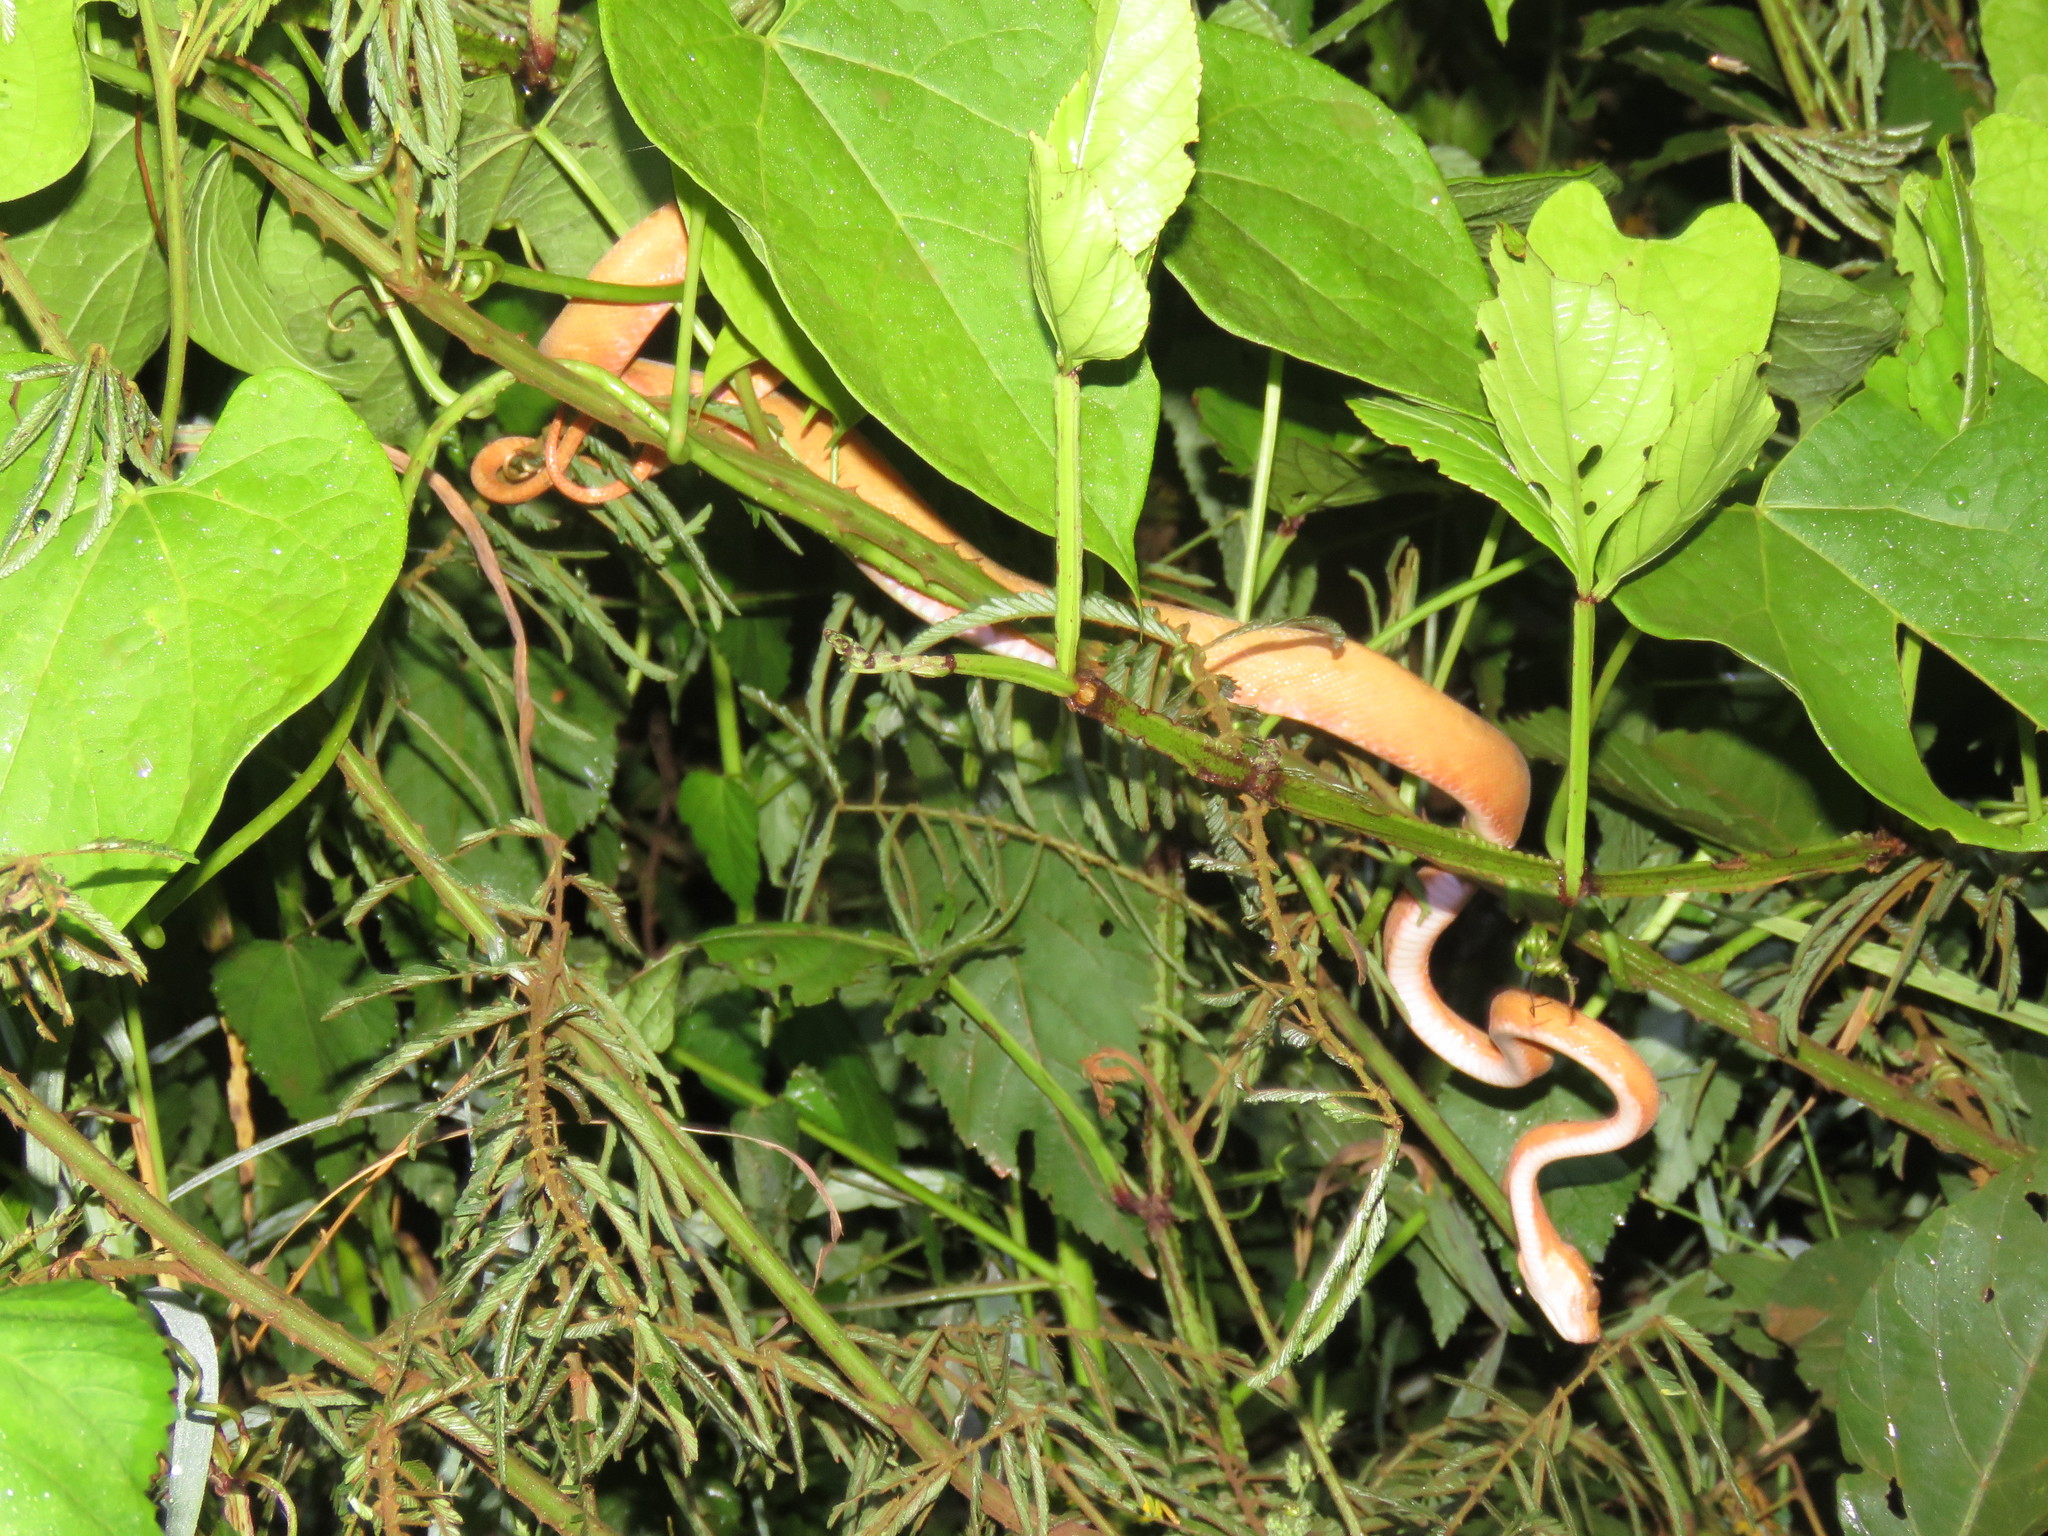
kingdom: Animalia
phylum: Chordata
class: Squamata
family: Boidae
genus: Corallus
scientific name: Corallus hortulana
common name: Garden tree boa
